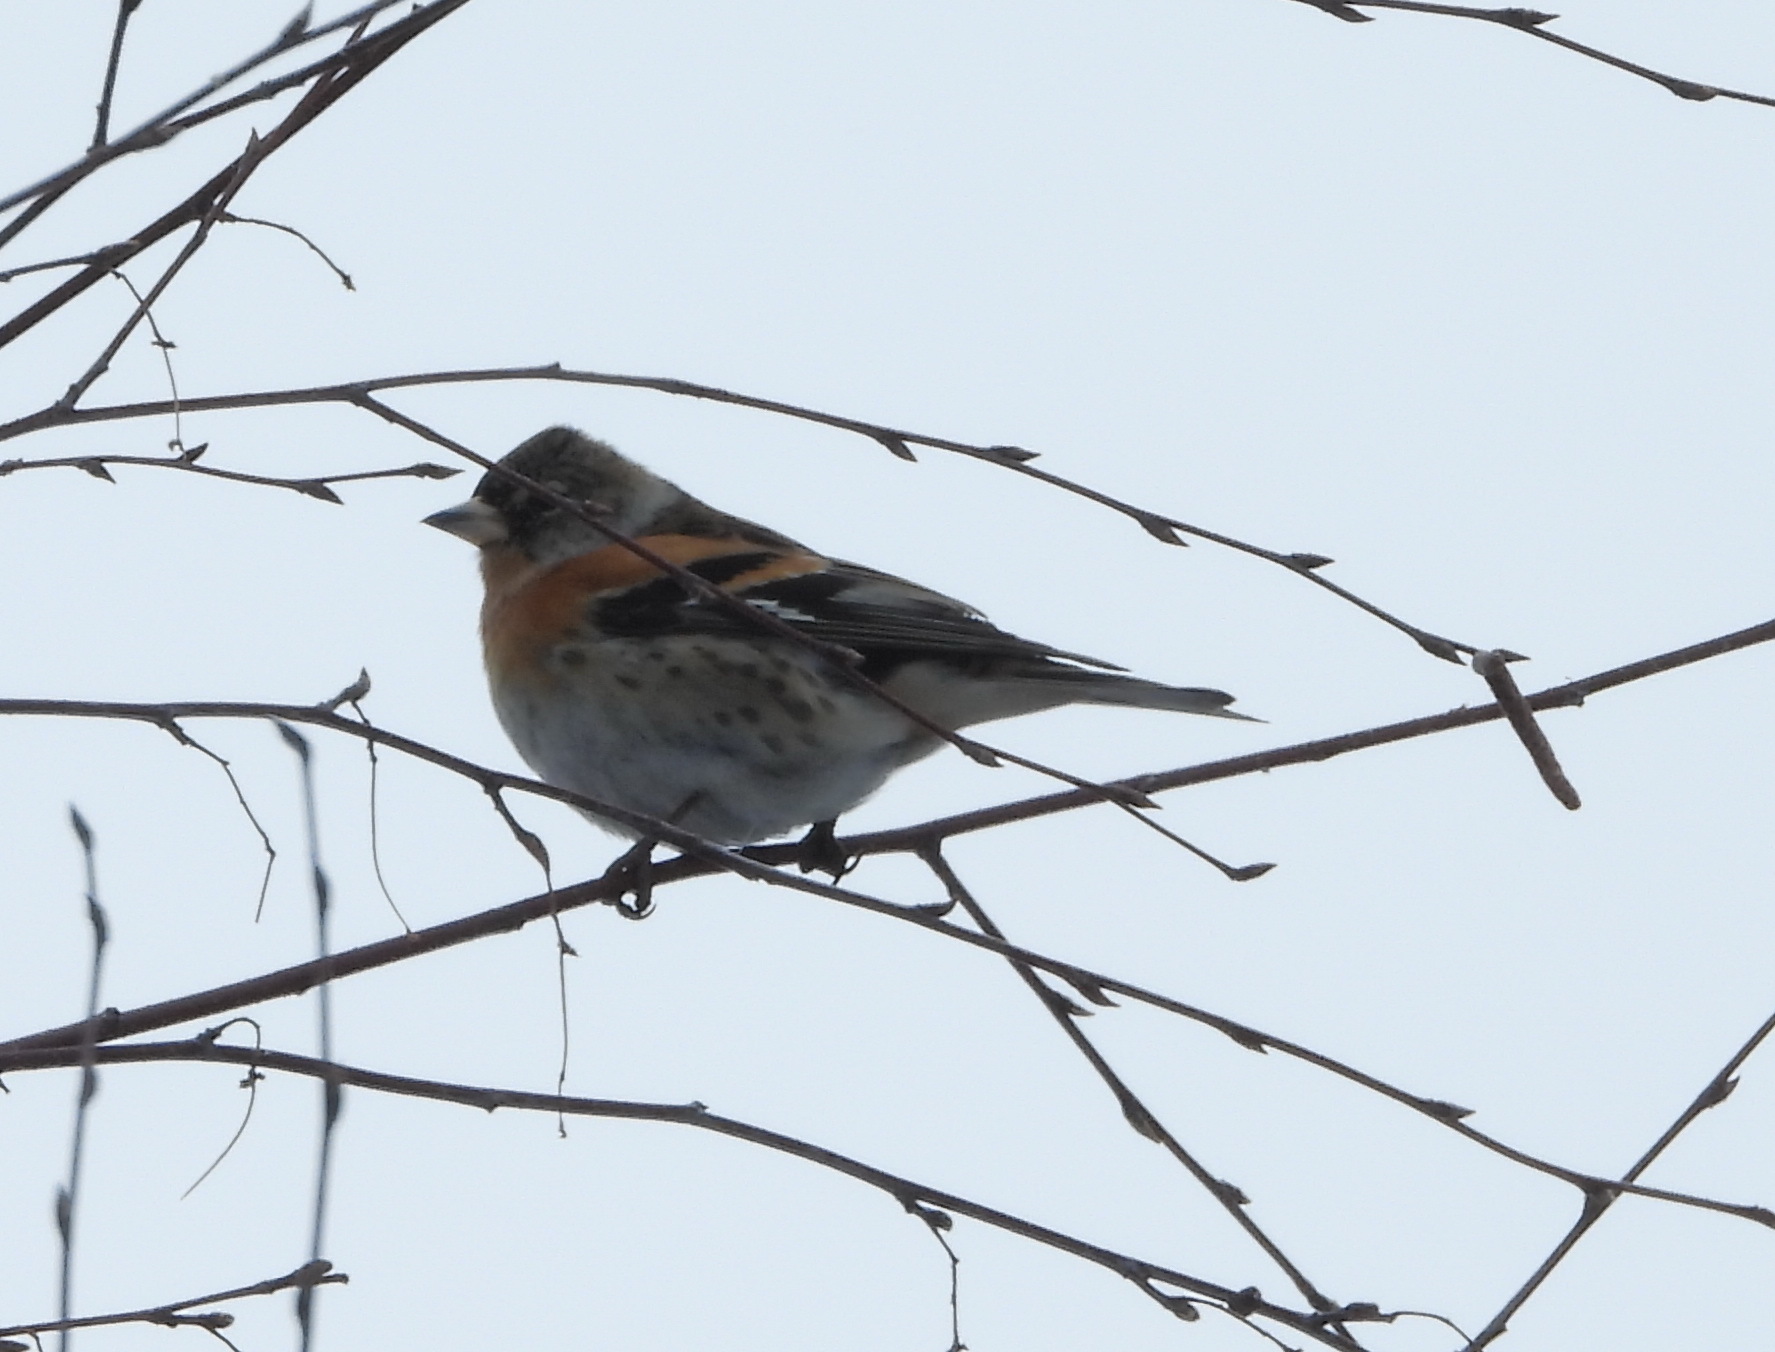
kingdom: Animalia
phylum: Chordata
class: Aves
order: Passeriformes
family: Fringillidae
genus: Fringilla
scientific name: Fringilla montifringilla
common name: Brambling
